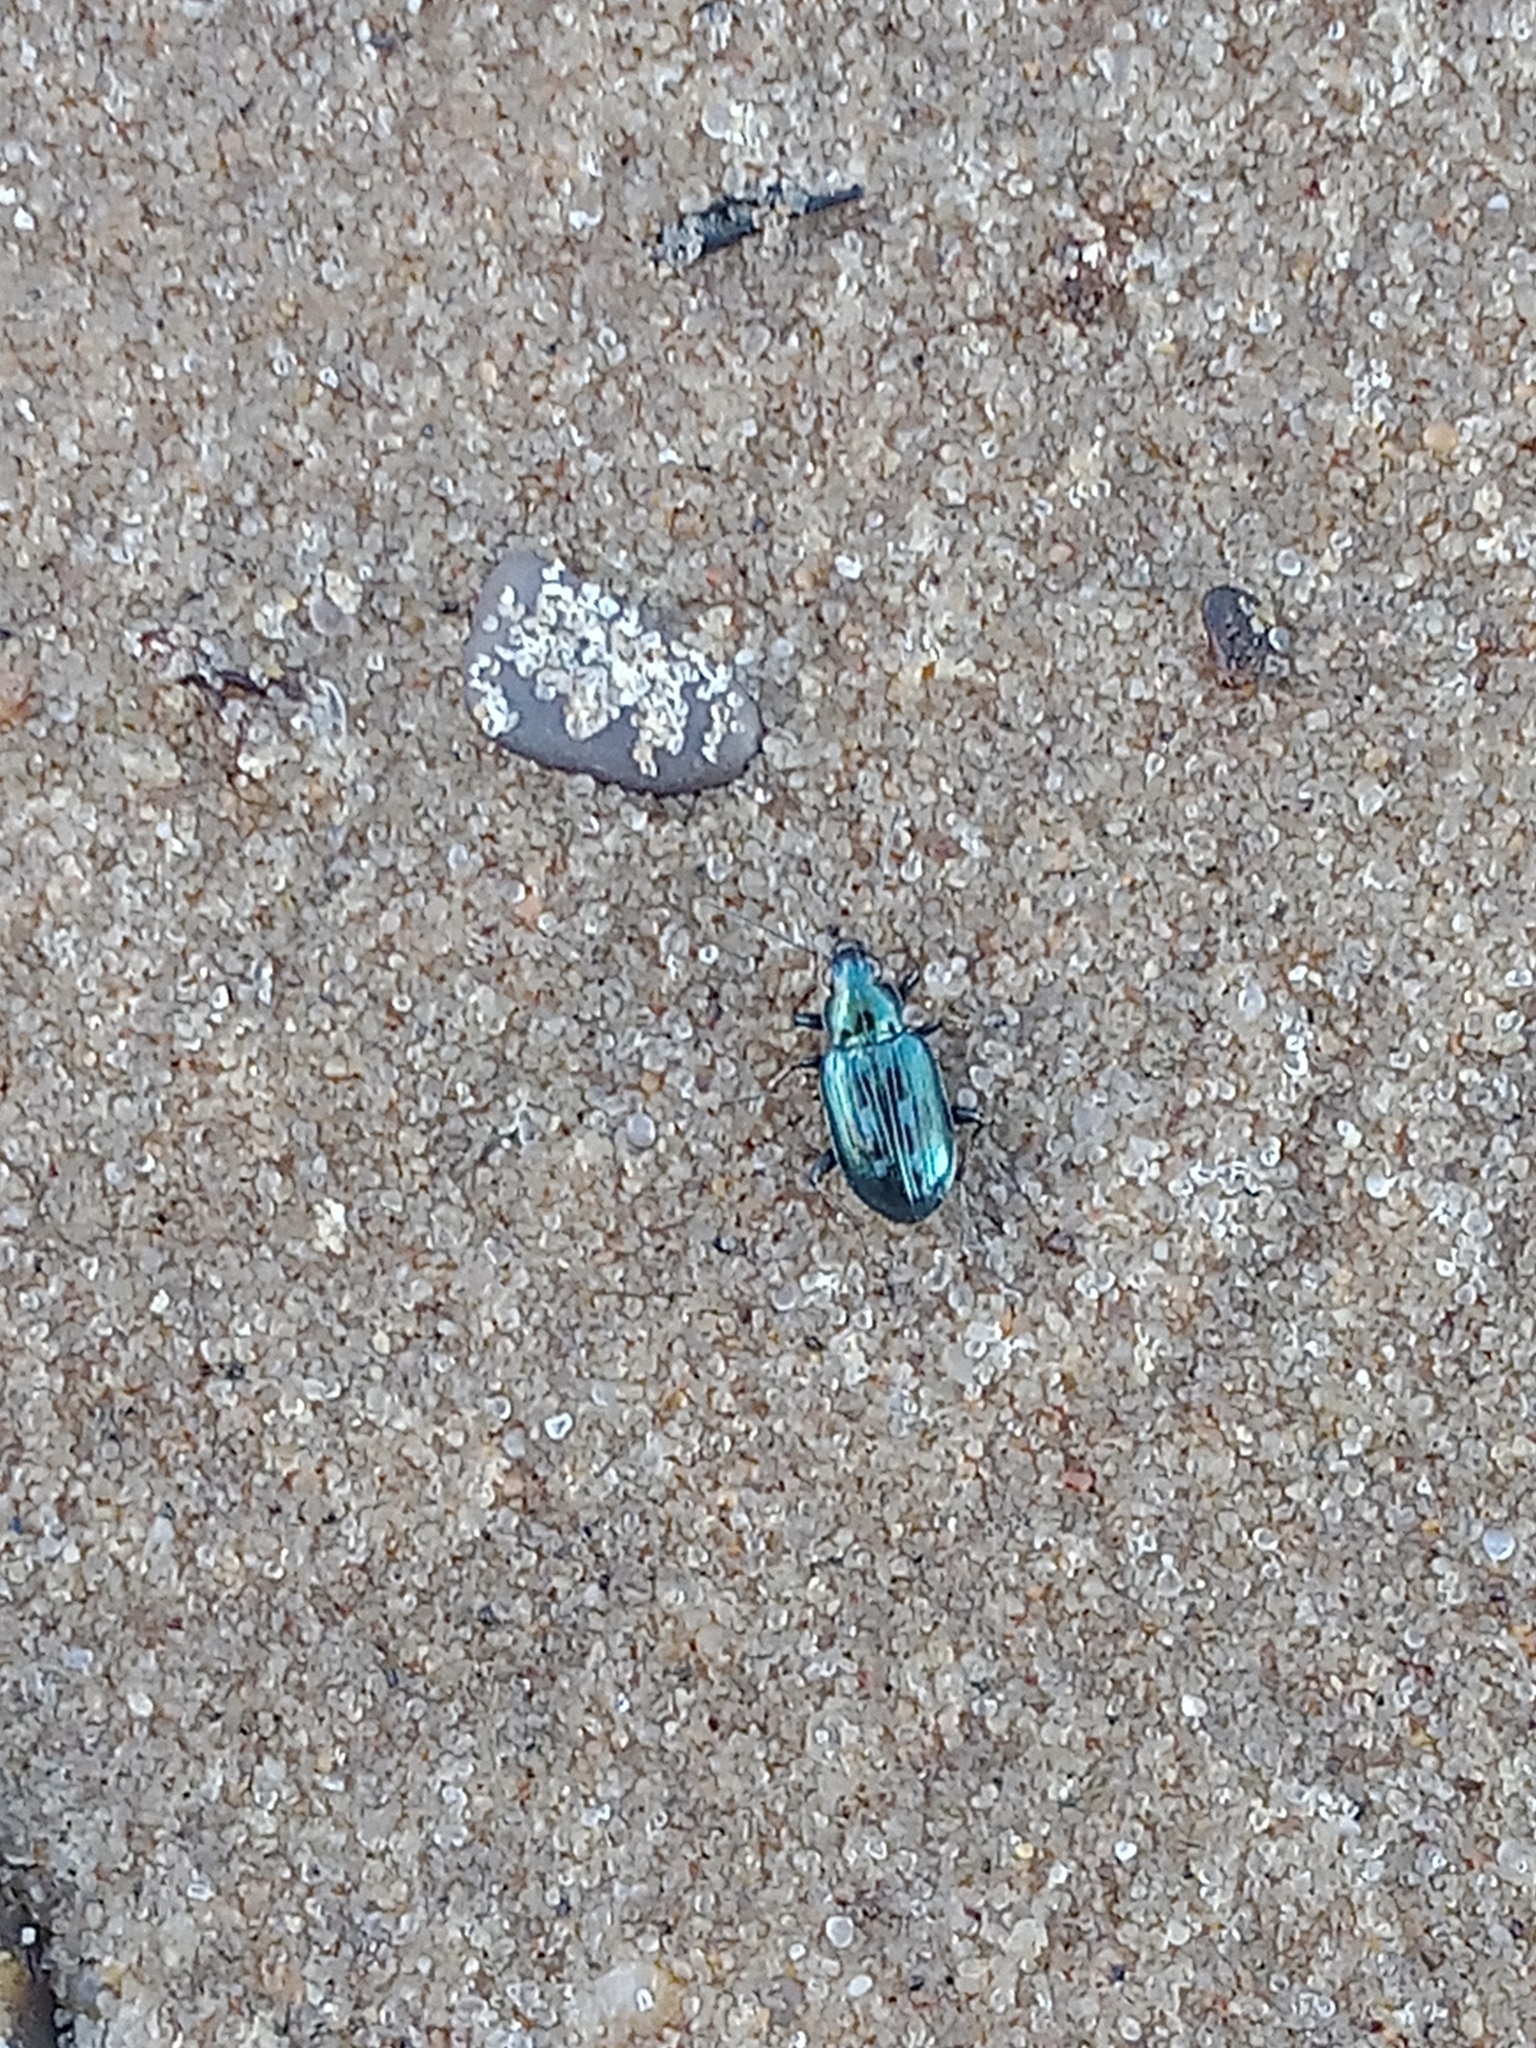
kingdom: Animalia
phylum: Arthropoda
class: Insecta
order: Coleoptera
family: Carabidae
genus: Bembidion
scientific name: Bembidion argenteolum
